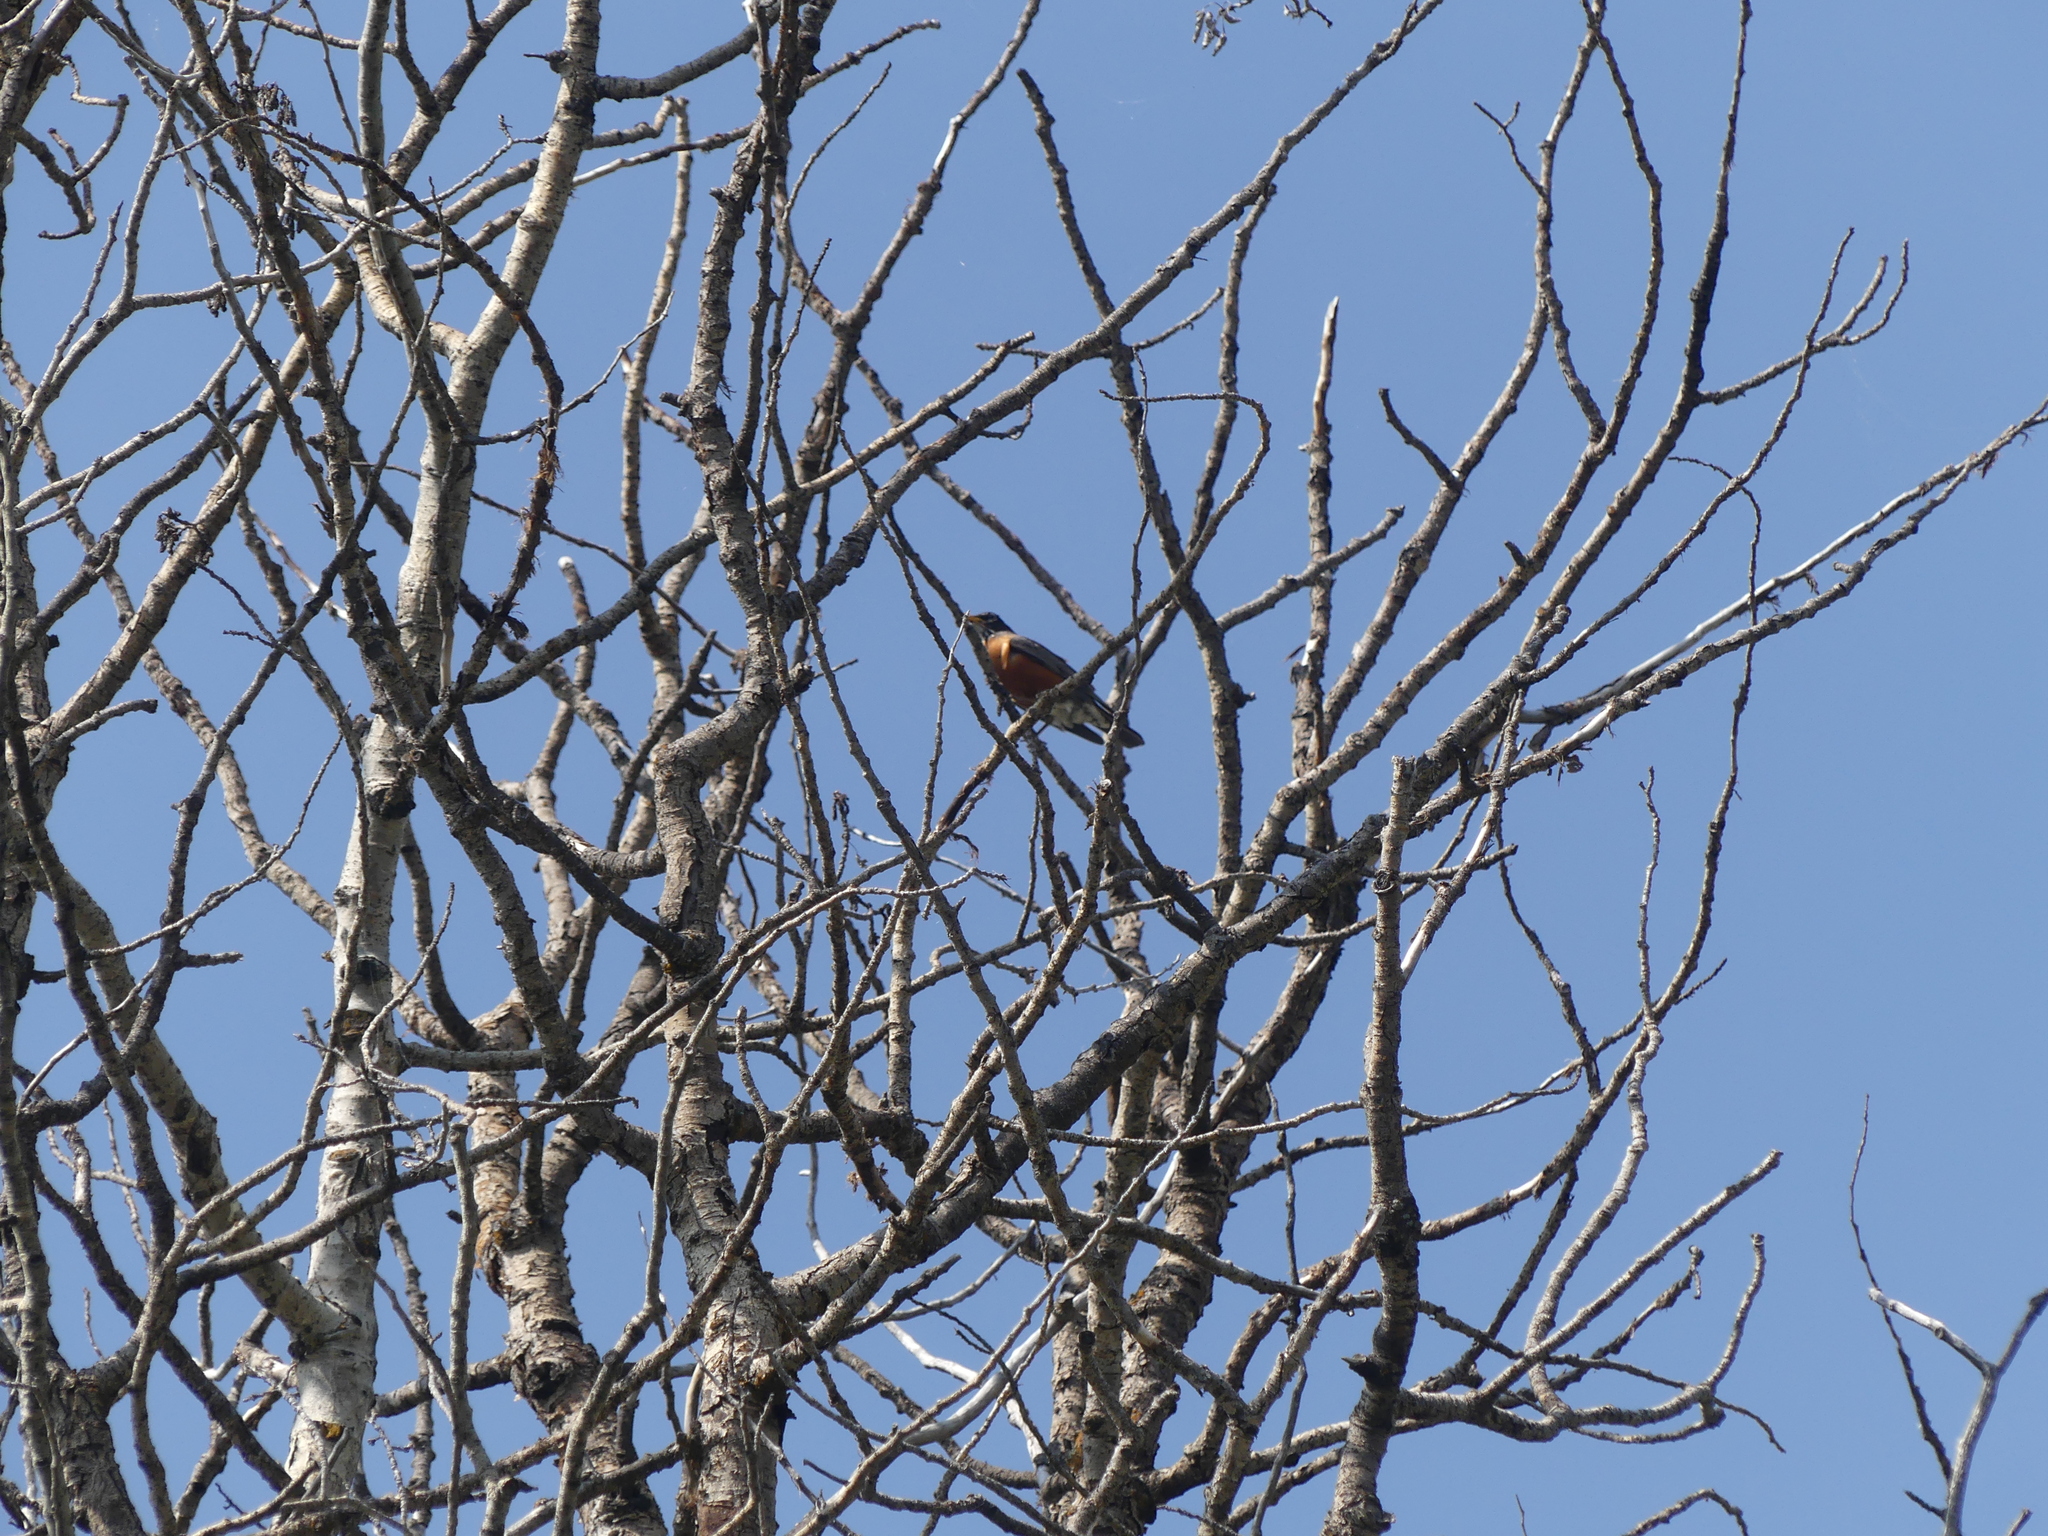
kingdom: Animalia
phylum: Chordata
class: Aves
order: Passeriformes
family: Turdidae
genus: Turdus
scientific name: Turdus migratorius
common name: American robin
